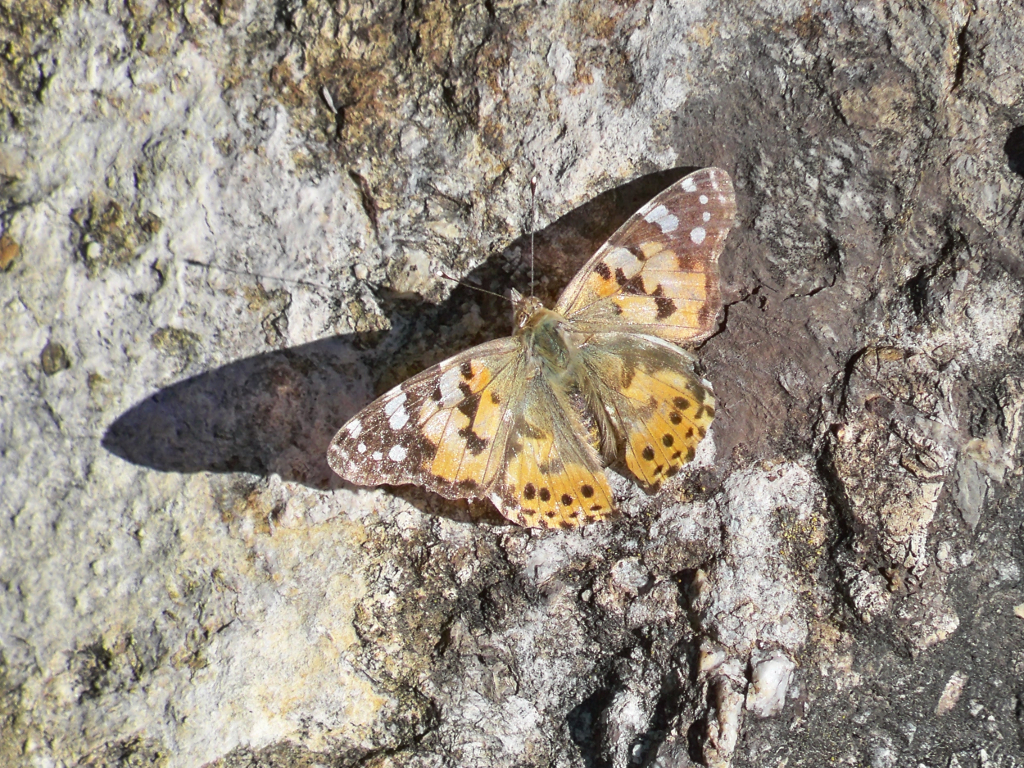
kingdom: Animalia
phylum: Arthropoda
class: Insecta
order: Lepidoptera
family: Nymphalidae
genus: Vanessa
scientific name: Vanessa cardui
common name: Painted lady
